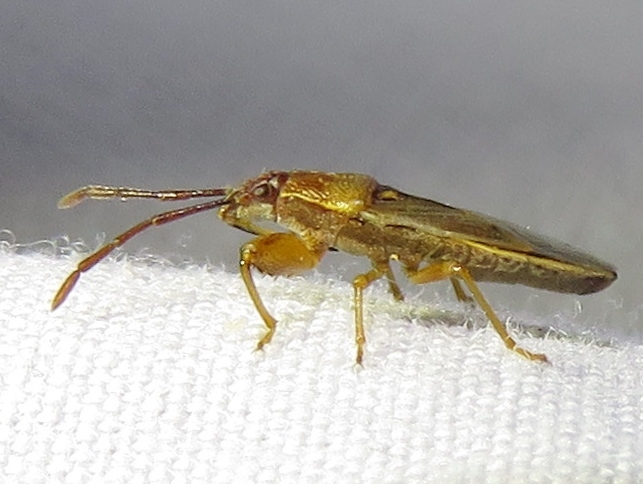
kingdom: Animalia
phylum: Arthropoda
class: Insecta
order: Hemiptera
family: Pachygronthidae
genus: Oedancala
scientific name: Oedancala crassimana
